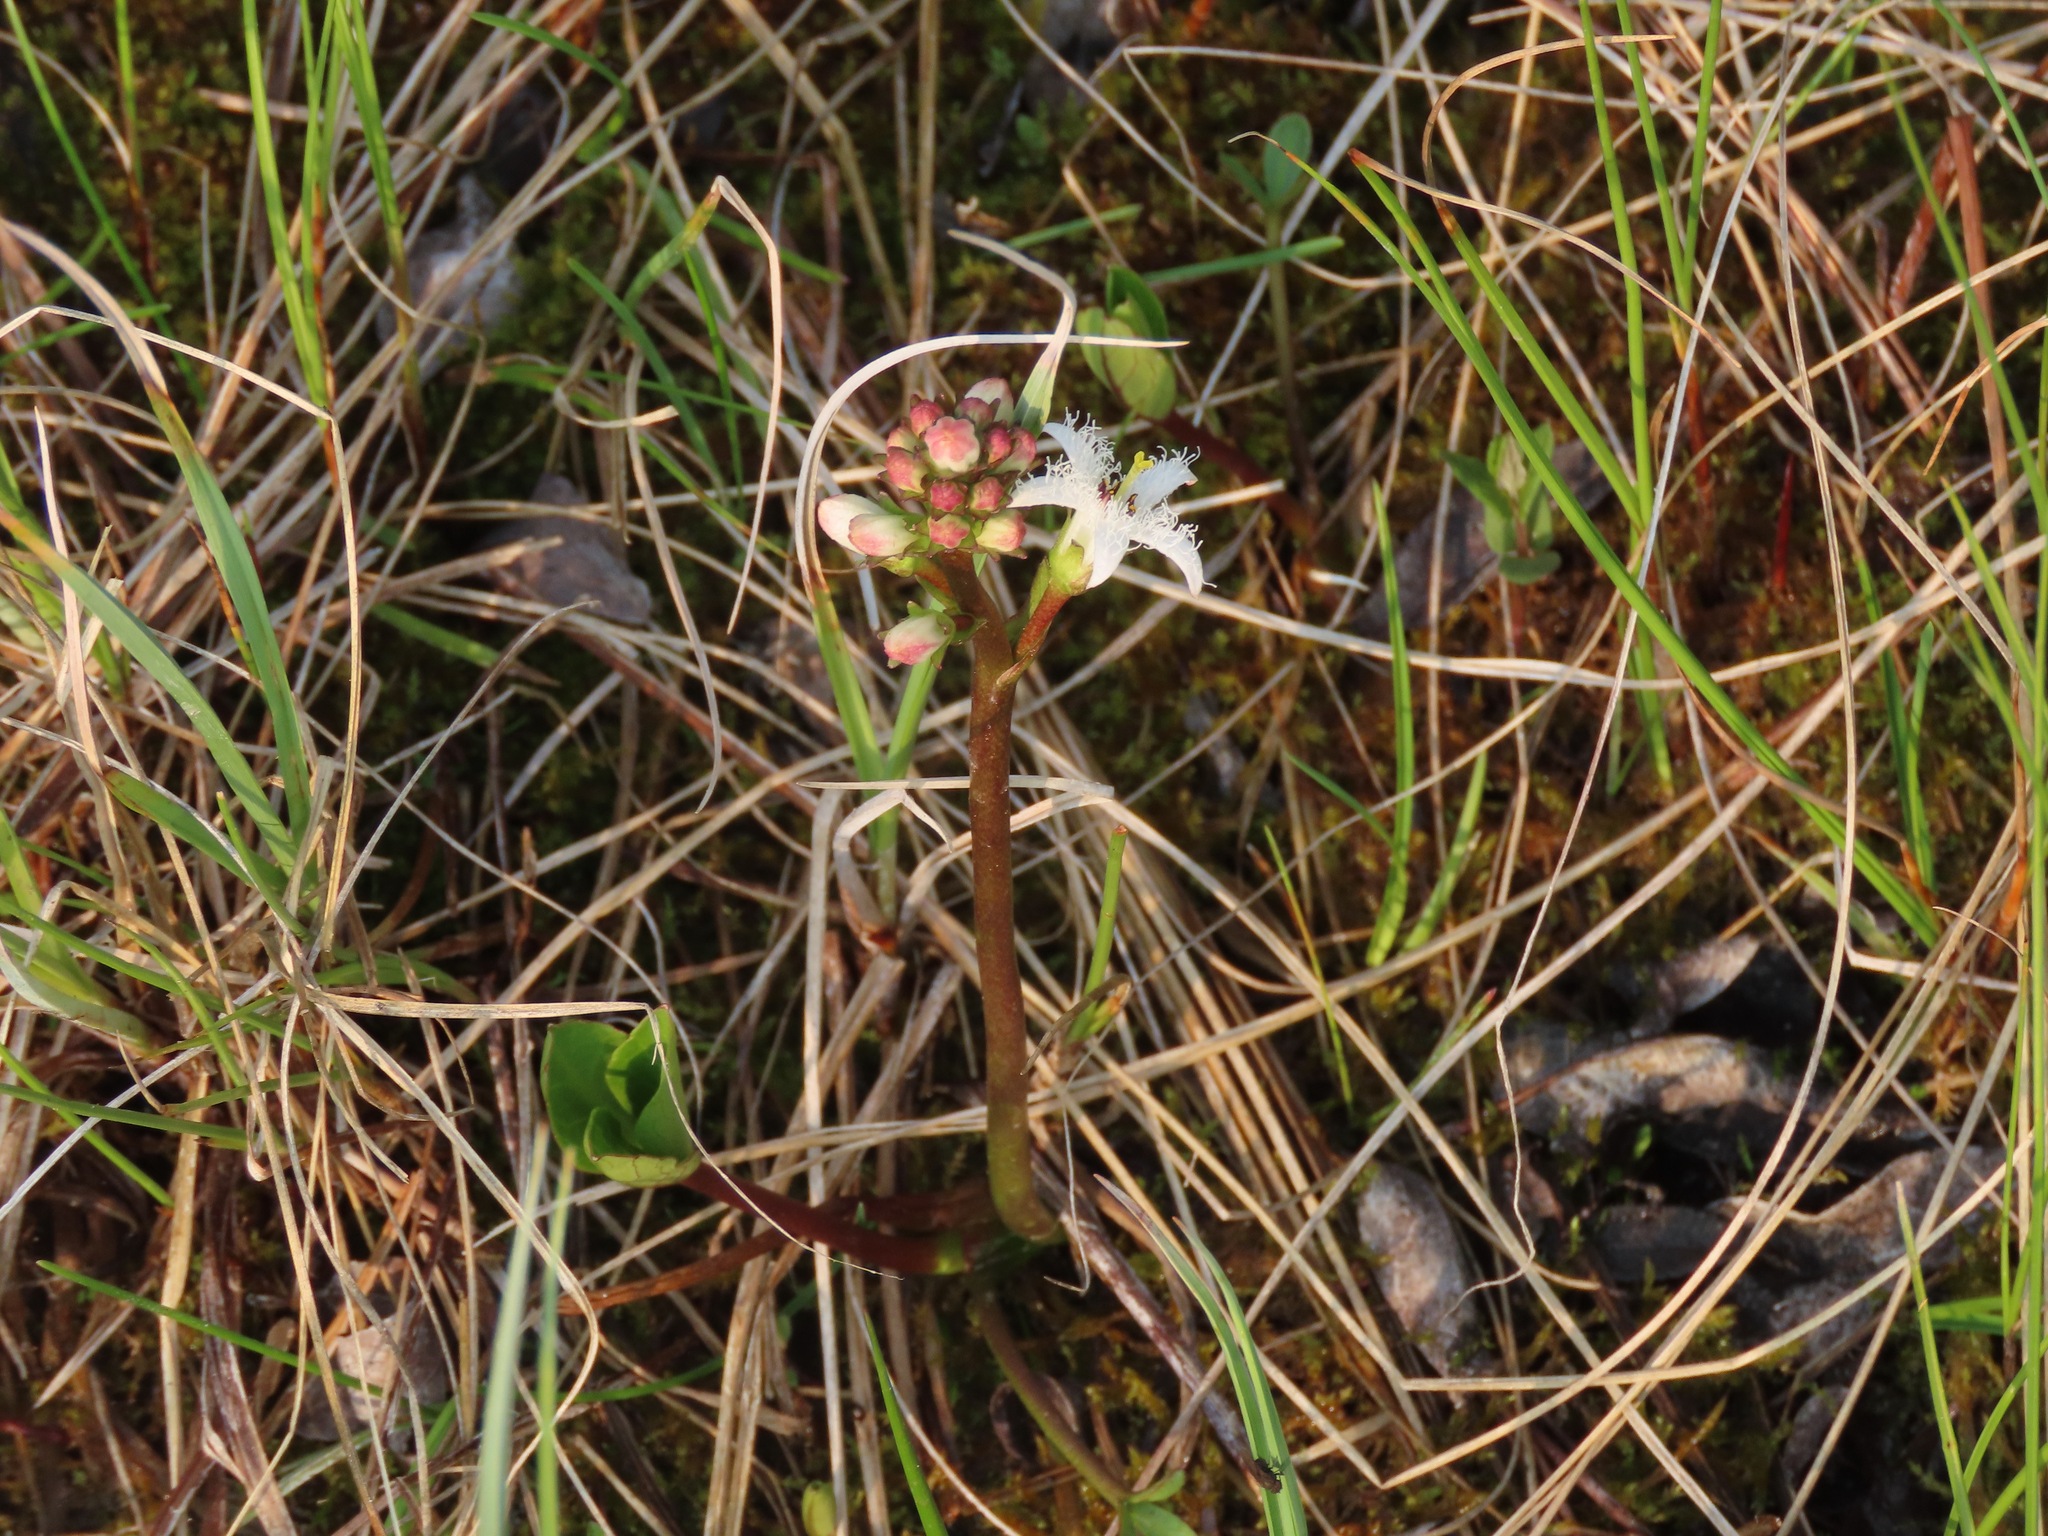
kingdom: Plantae
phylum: Tracheophyta
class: Magnoliopsida
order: Asterales
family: Menyanthaceae
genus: Menyanthes
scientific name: Menyanthes trifoliata
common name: Bogbean
